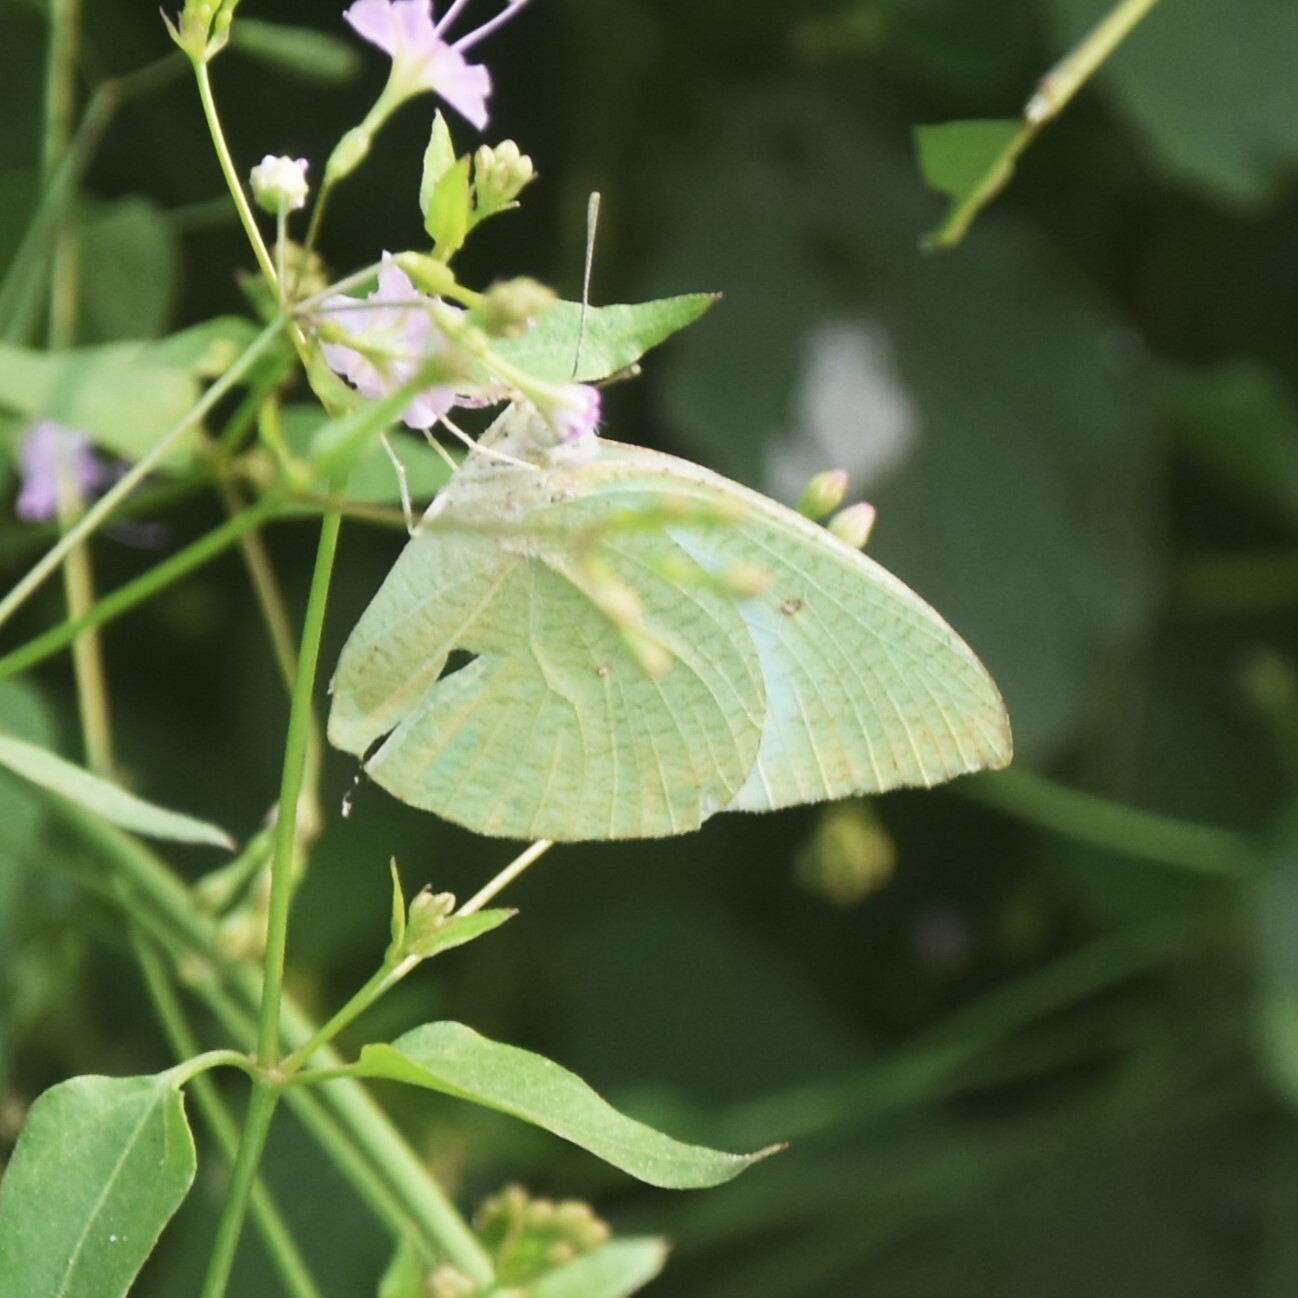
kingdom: Animalia
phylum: Arthropoda
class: Insecta
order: Lepidoptera
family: Pieridae
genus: Catopsilia
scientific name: Catopsilia pyranthe
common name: Mottled emigrant
